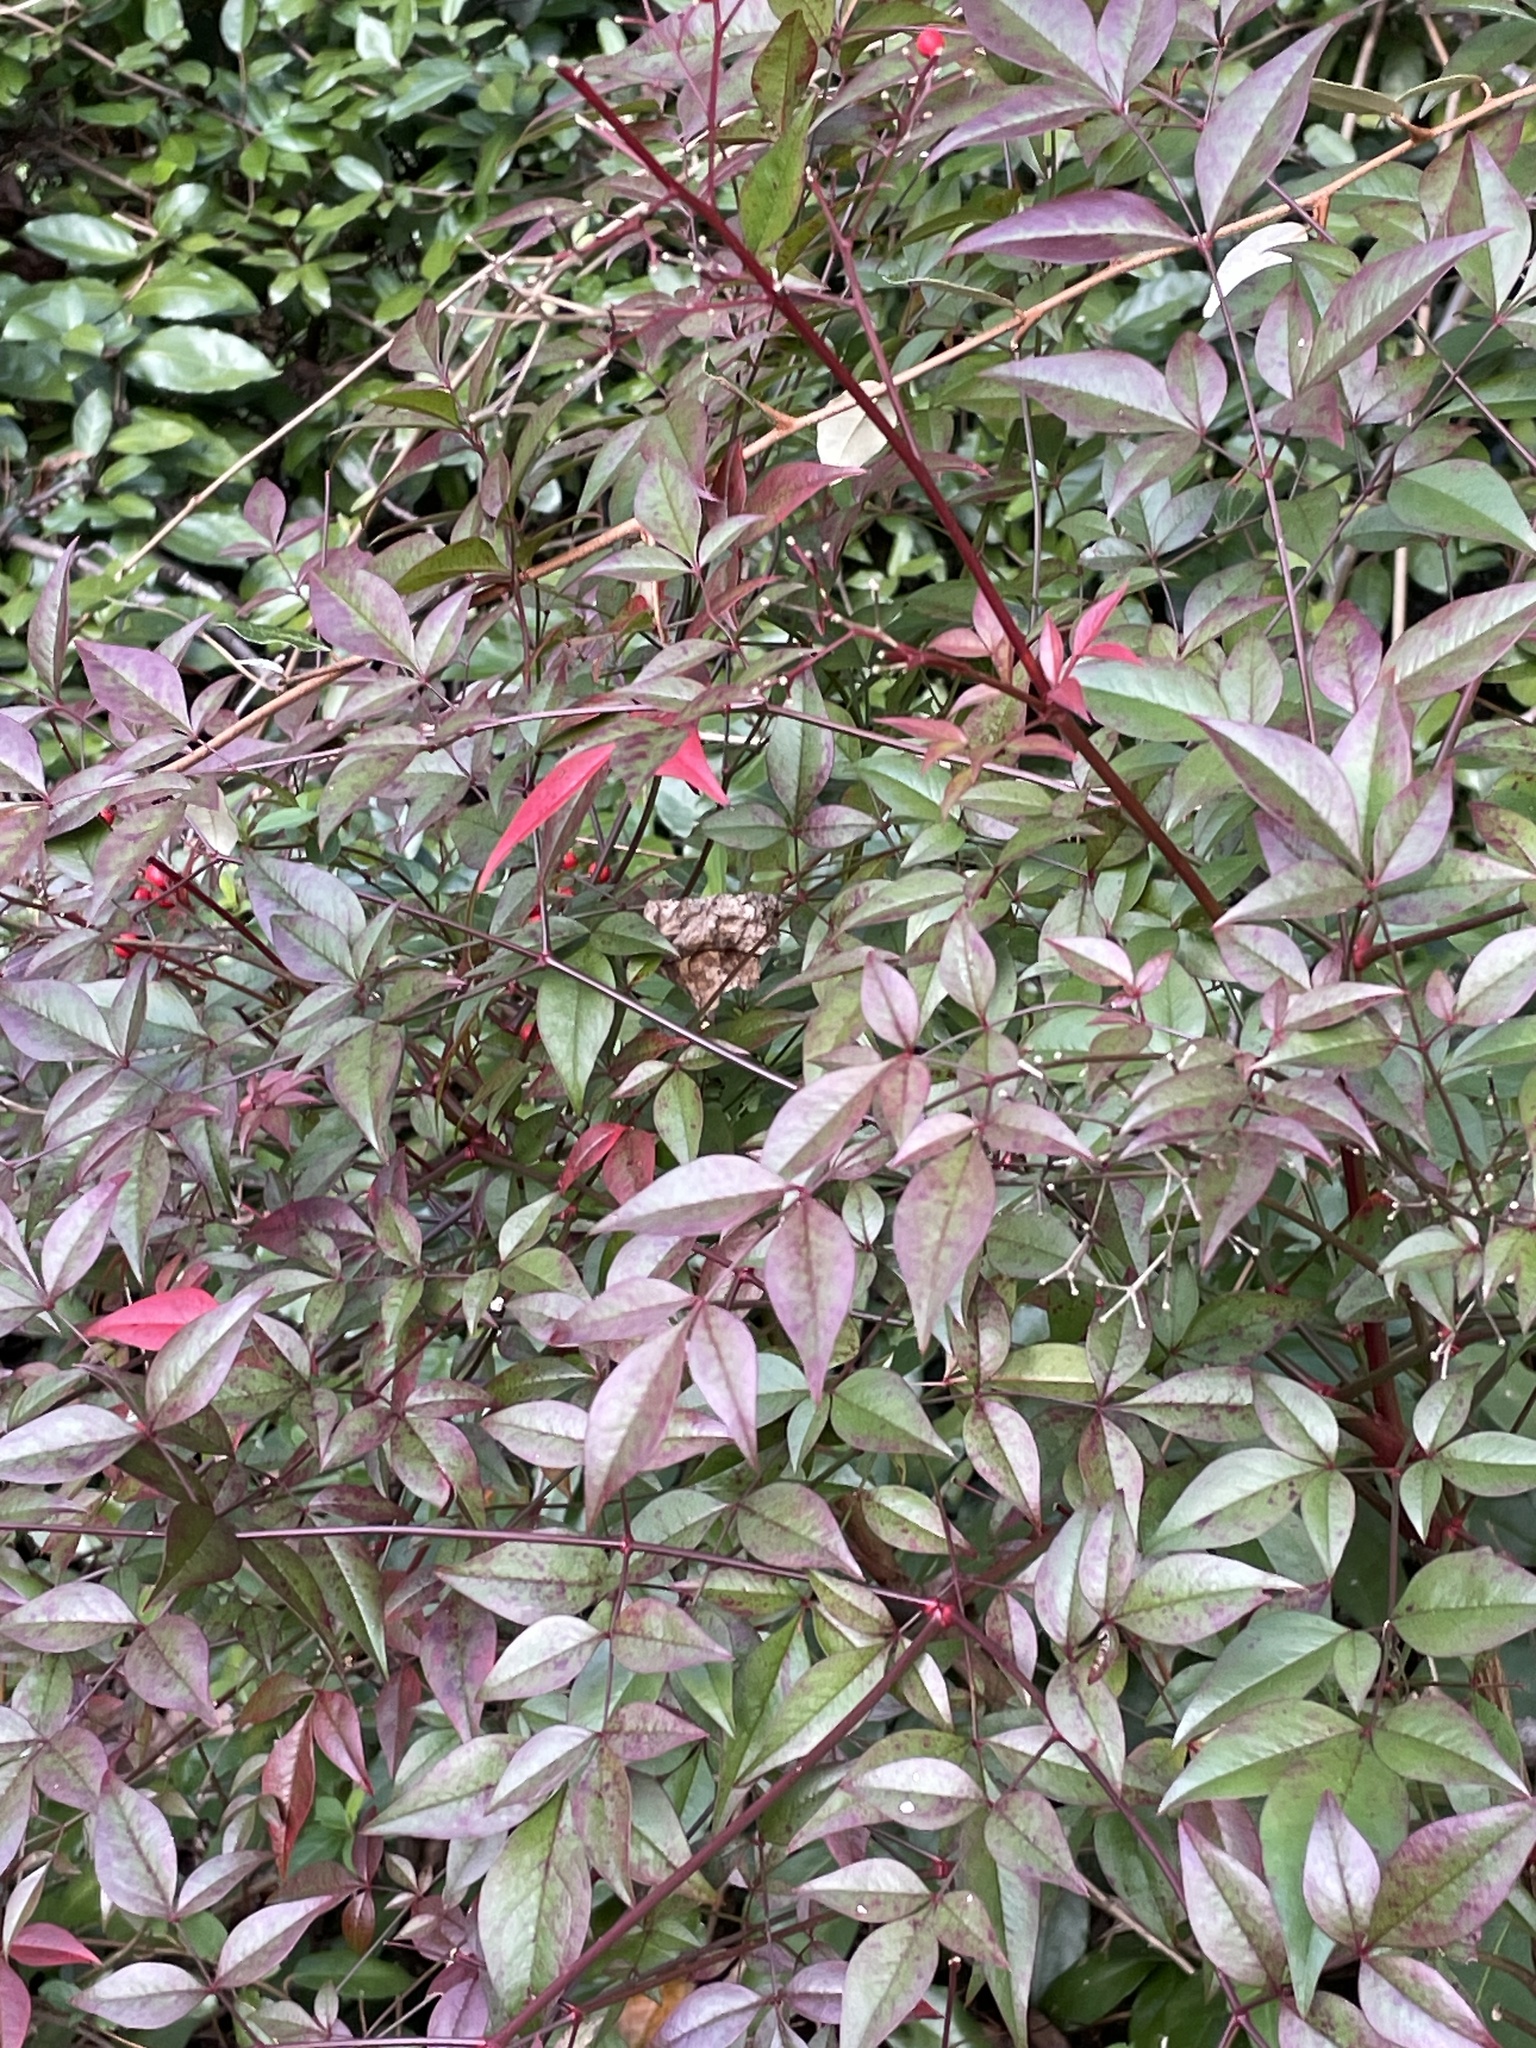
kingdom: Plantae
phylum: Tracheophyta
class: Magnoliopsida
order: Ranunculales
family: Berberidaceae
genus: Nandina
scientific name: Nandina domestica
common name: Sacred bamboo
